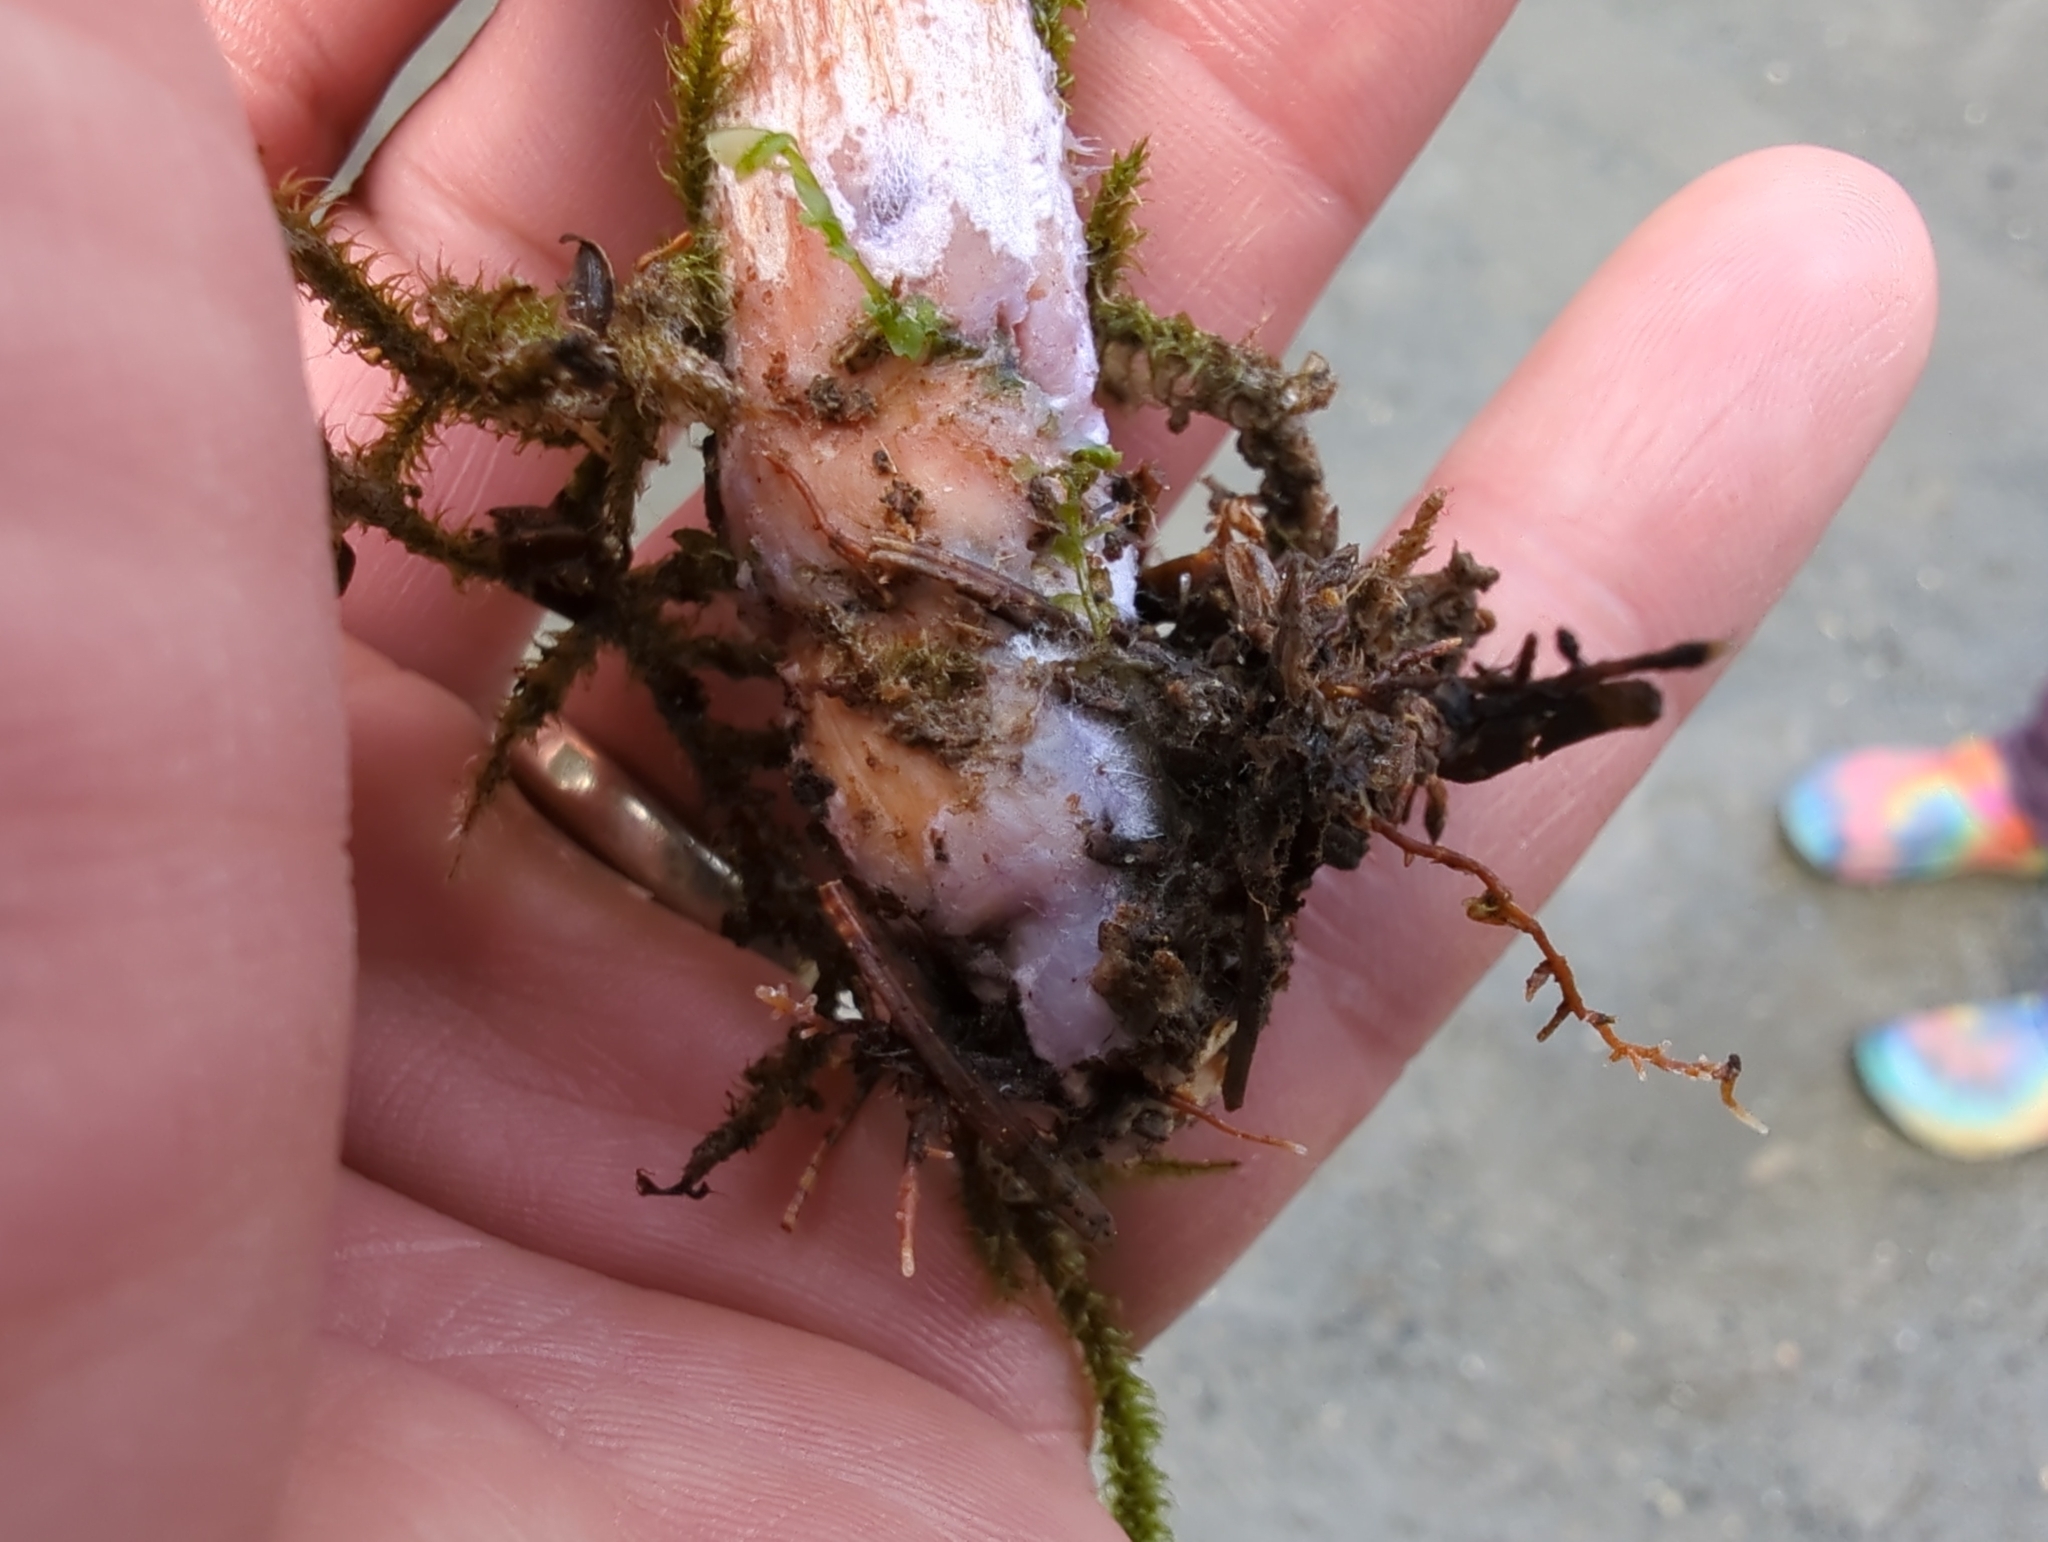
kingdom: Fungi
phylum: Basidiomycota
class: Agaricomycetes
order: Agaricales
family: Hydnangiaceae
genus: Laccaria
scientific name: Laccaria bicolor
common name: Bicoloured deceiver
